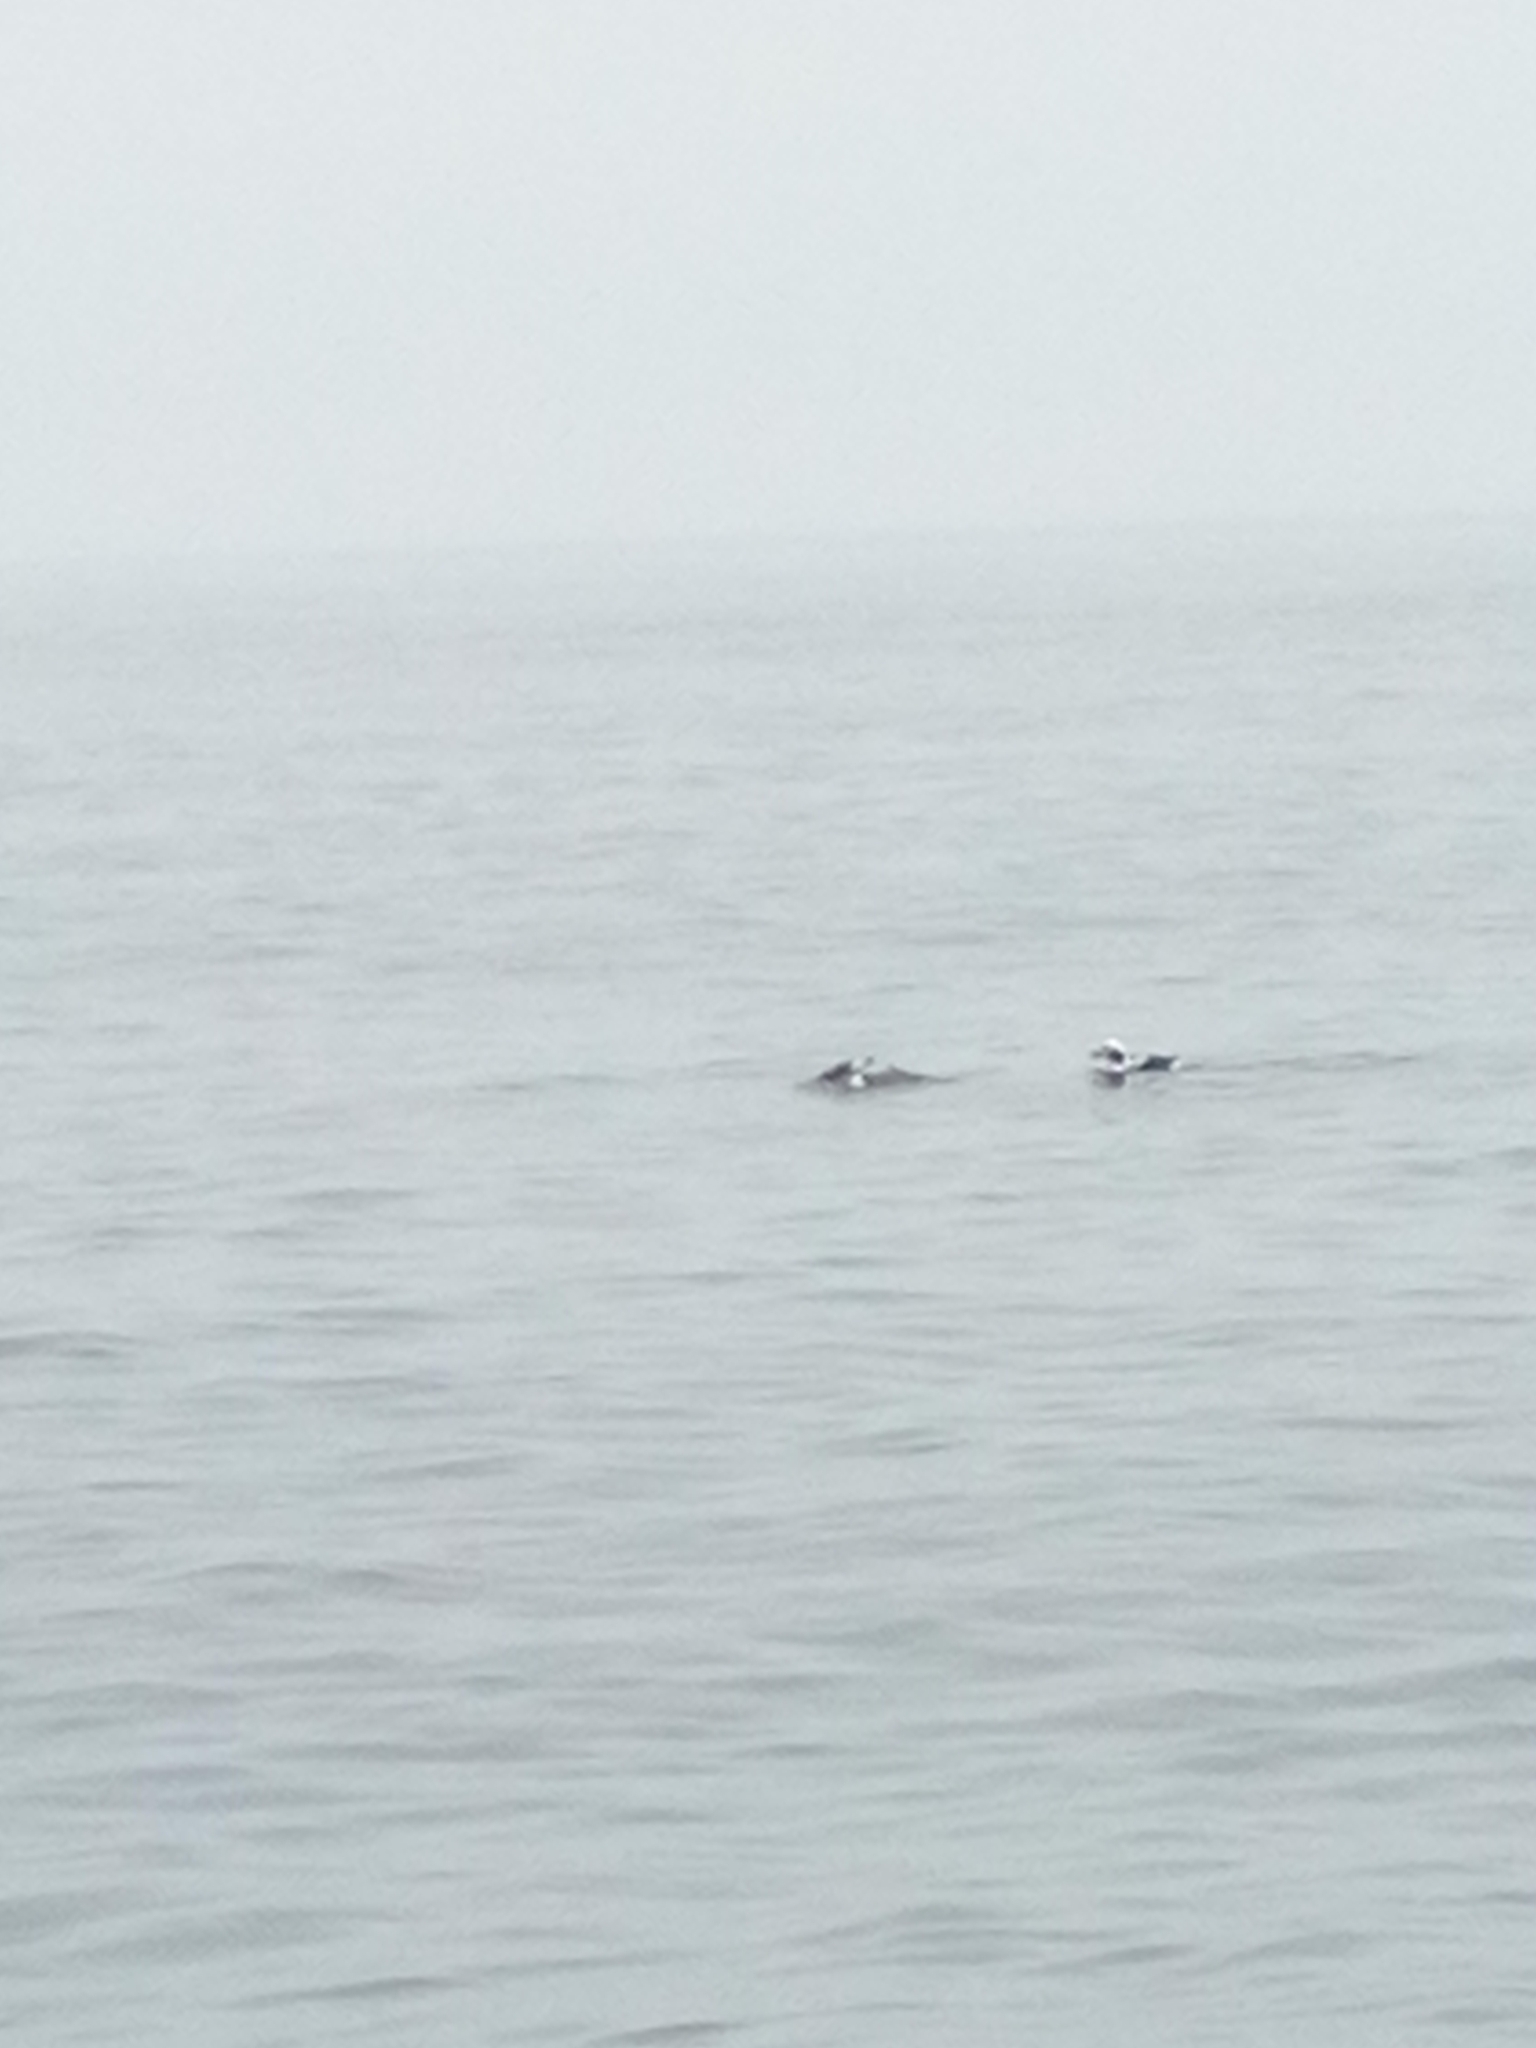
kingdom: Animalia
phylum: Chordata
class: Aves
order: Anseriformes
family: Anatidae
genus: Clangula
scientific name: Clangula hyemalis
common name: Long-tailed duck
